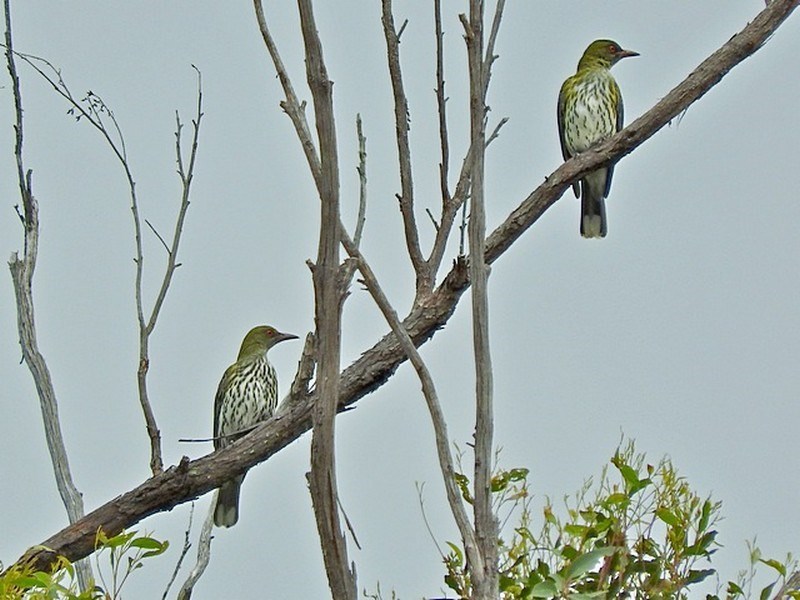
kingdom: Animalia
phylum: Chordata
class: Aves
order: Passeriformes
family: Oriolidae
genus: Oriolus
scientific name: Oriolus sagittatus
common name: Olive-backed oriole
